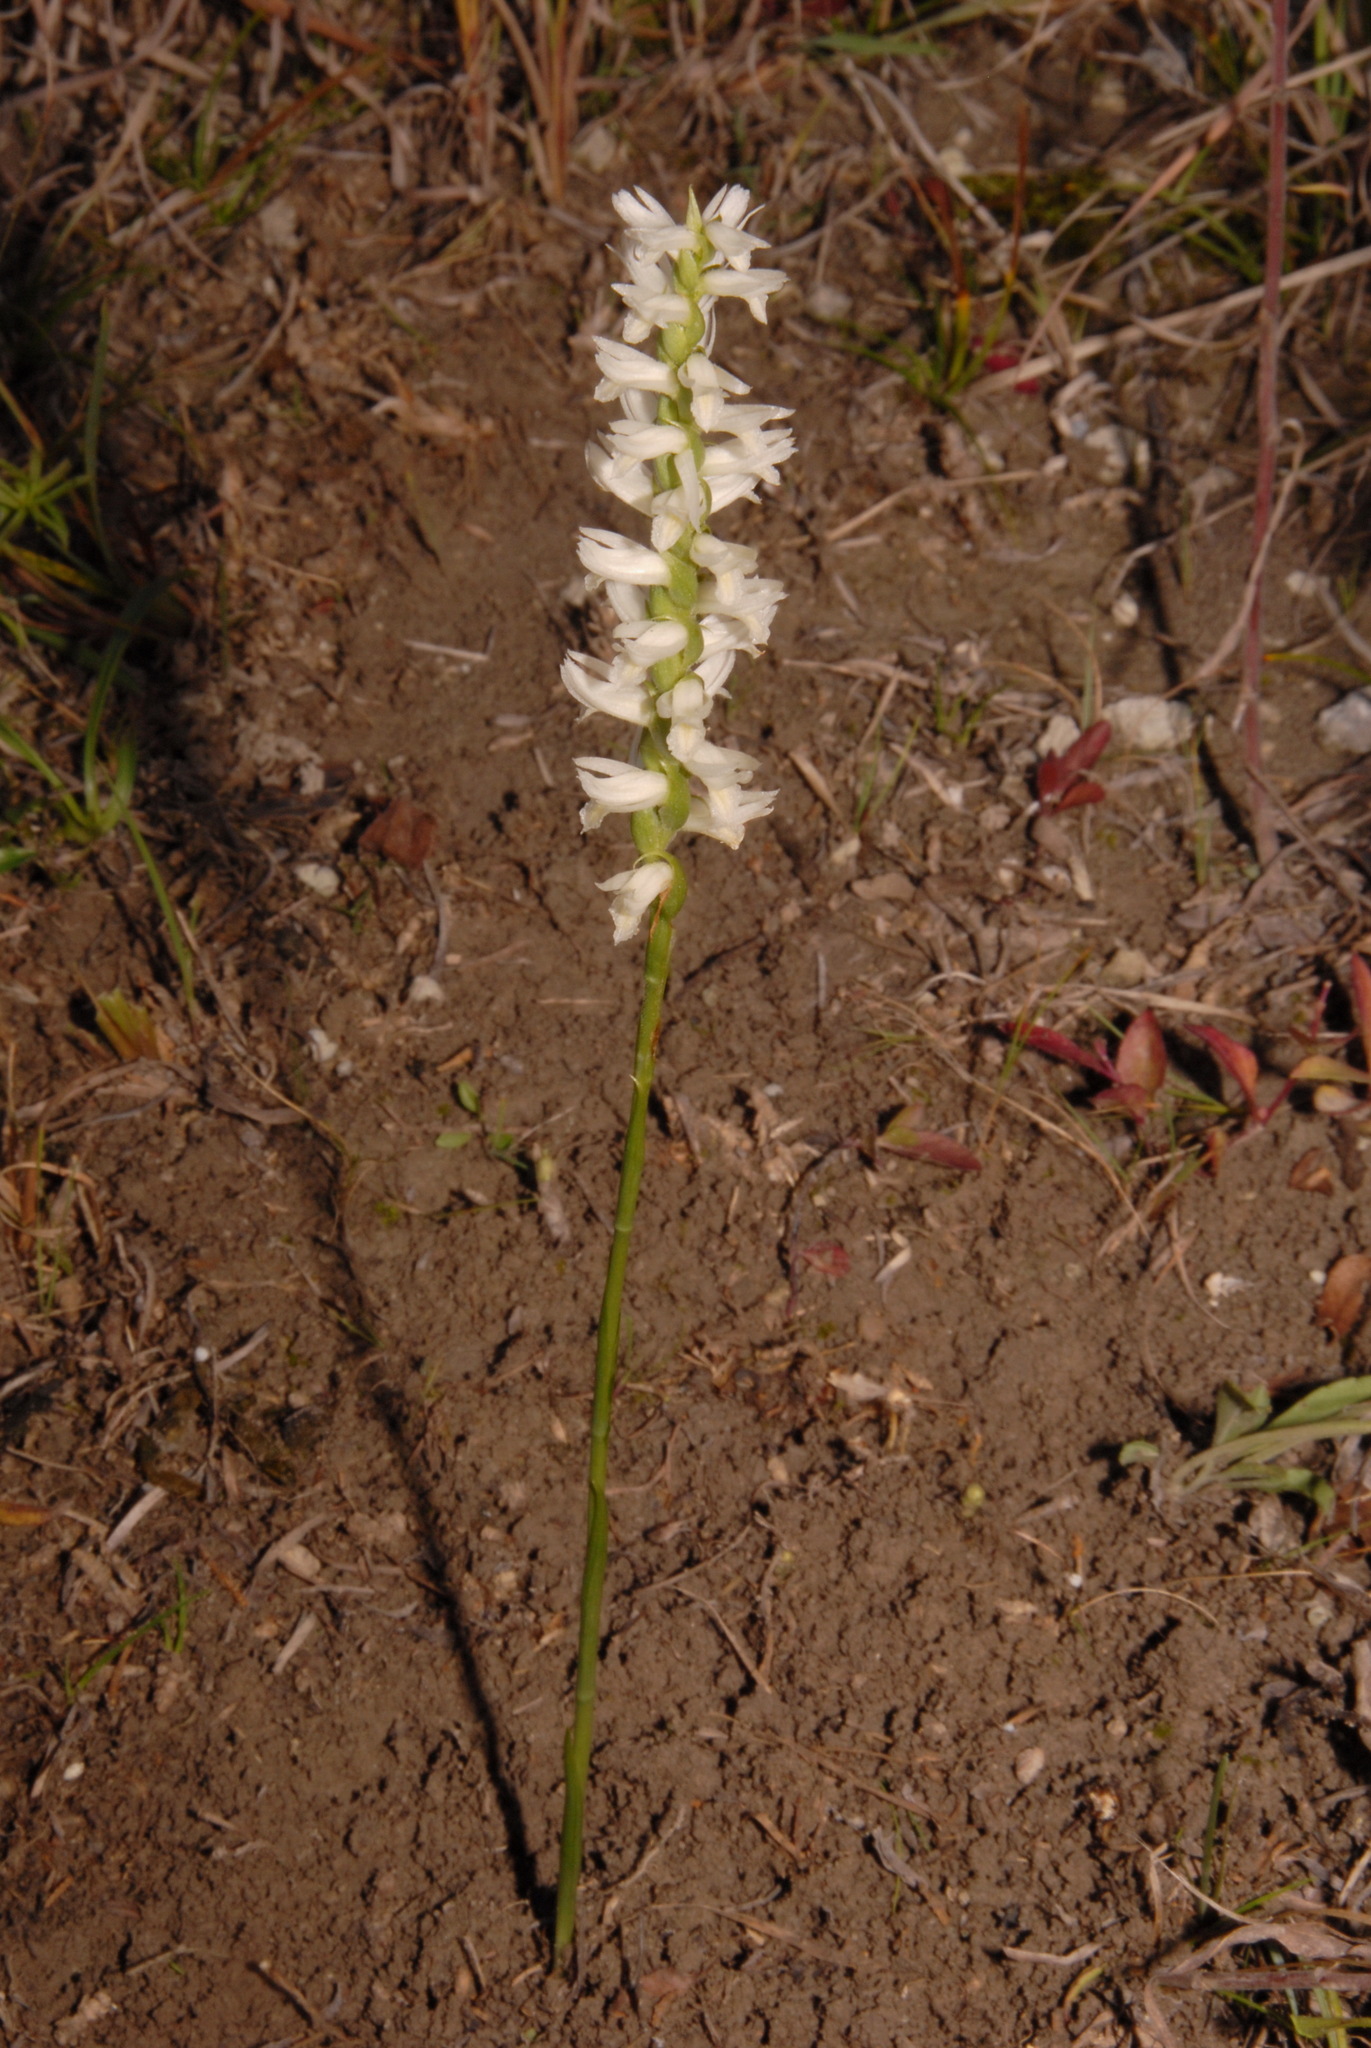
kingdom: Plantae
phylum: Tracheophyta
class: Liliopsida
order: Asparagales
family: Orchidaceae
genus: Spiranthes
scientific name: Spiranthes magnicamporum
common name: Great plains ladies'-tresses
